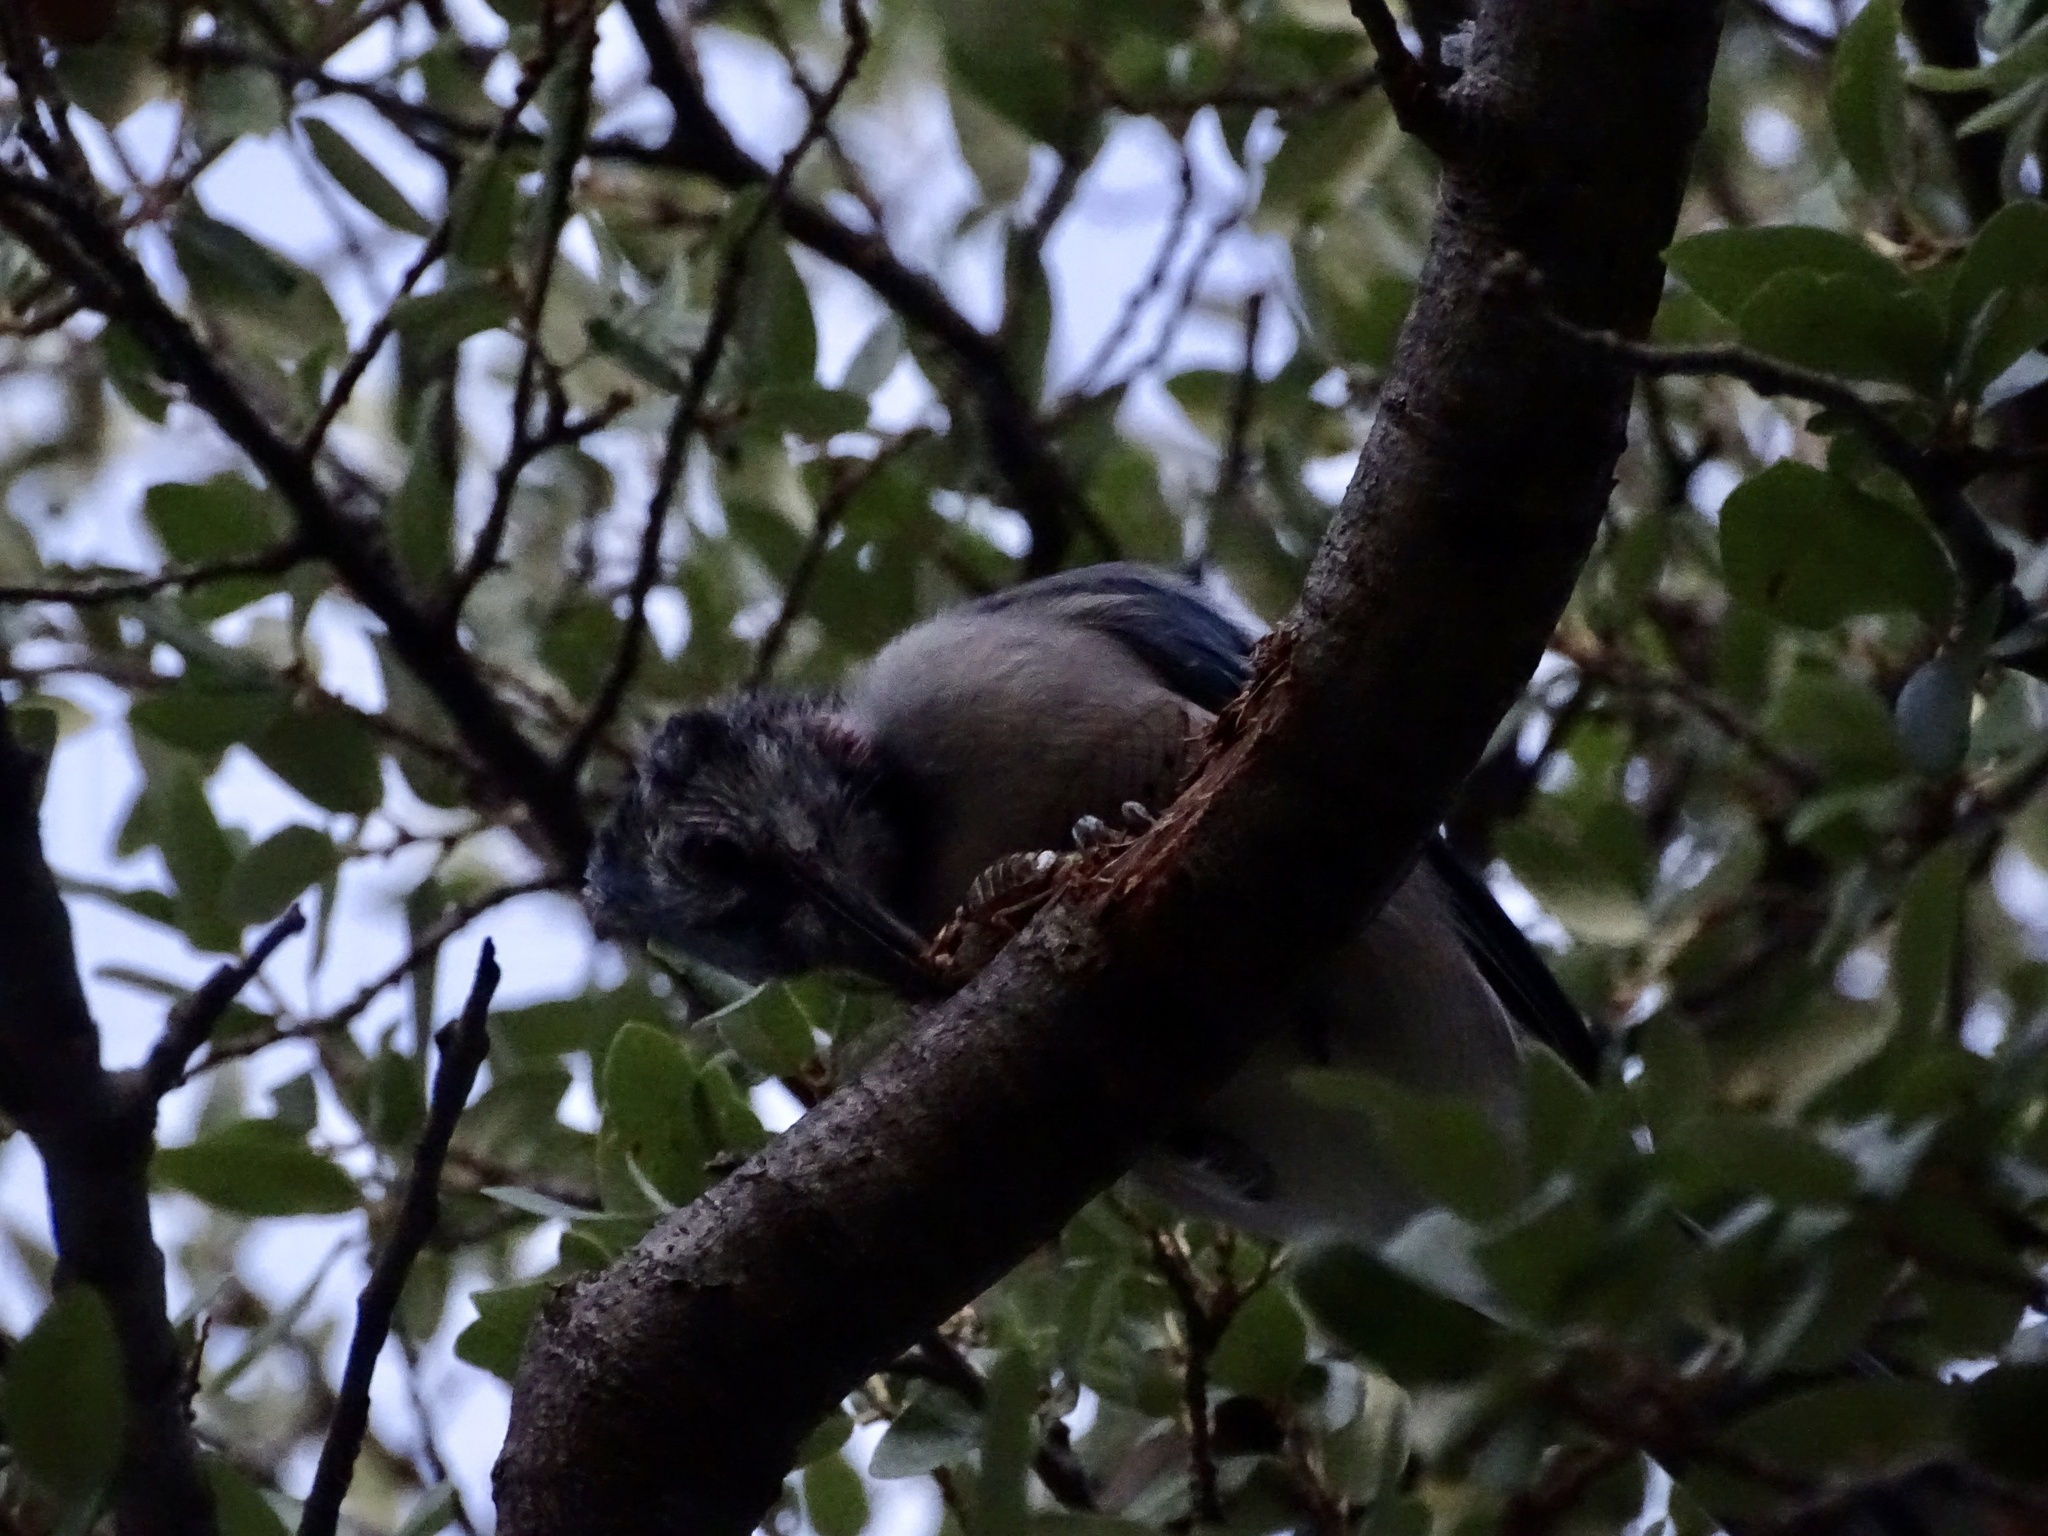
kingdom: Animalia
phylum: Chordata
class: Aves
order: Passeriformes
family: Corvidae
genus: Cyanocitta
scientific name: Cyanocitta cristata
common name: Blue jay
